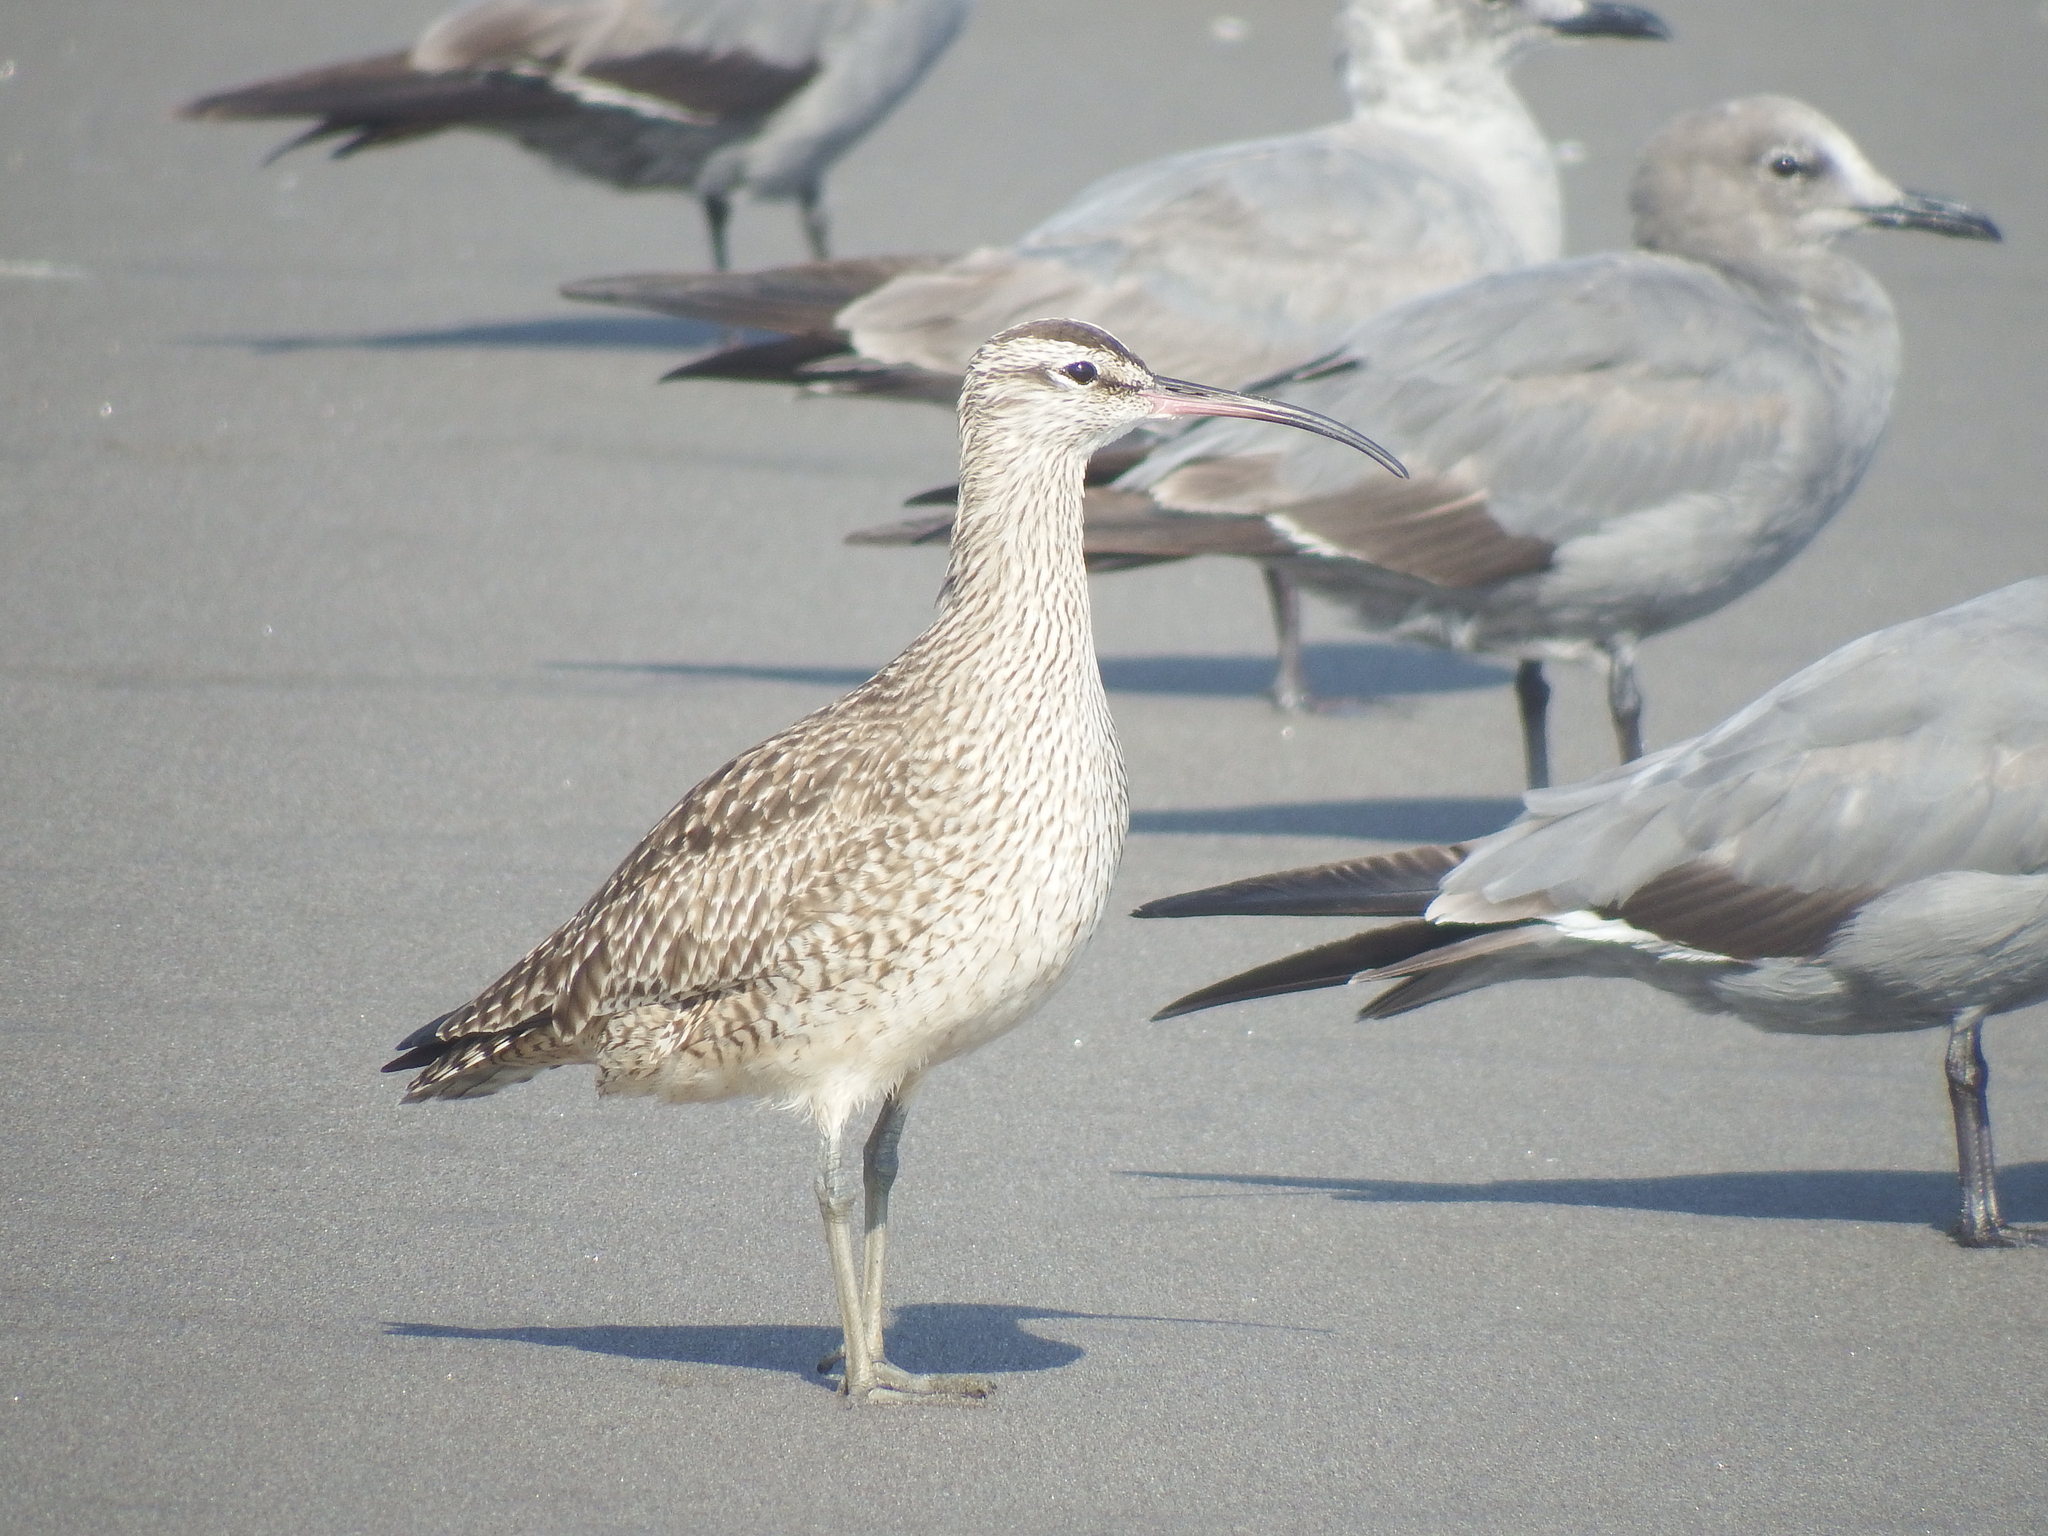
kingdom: Animalia
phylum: Chordata
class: Aves
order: Charadriiformes
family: Scolopacidae
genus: Numenius
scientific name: Numenius phaeopus
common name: Whimbrel
